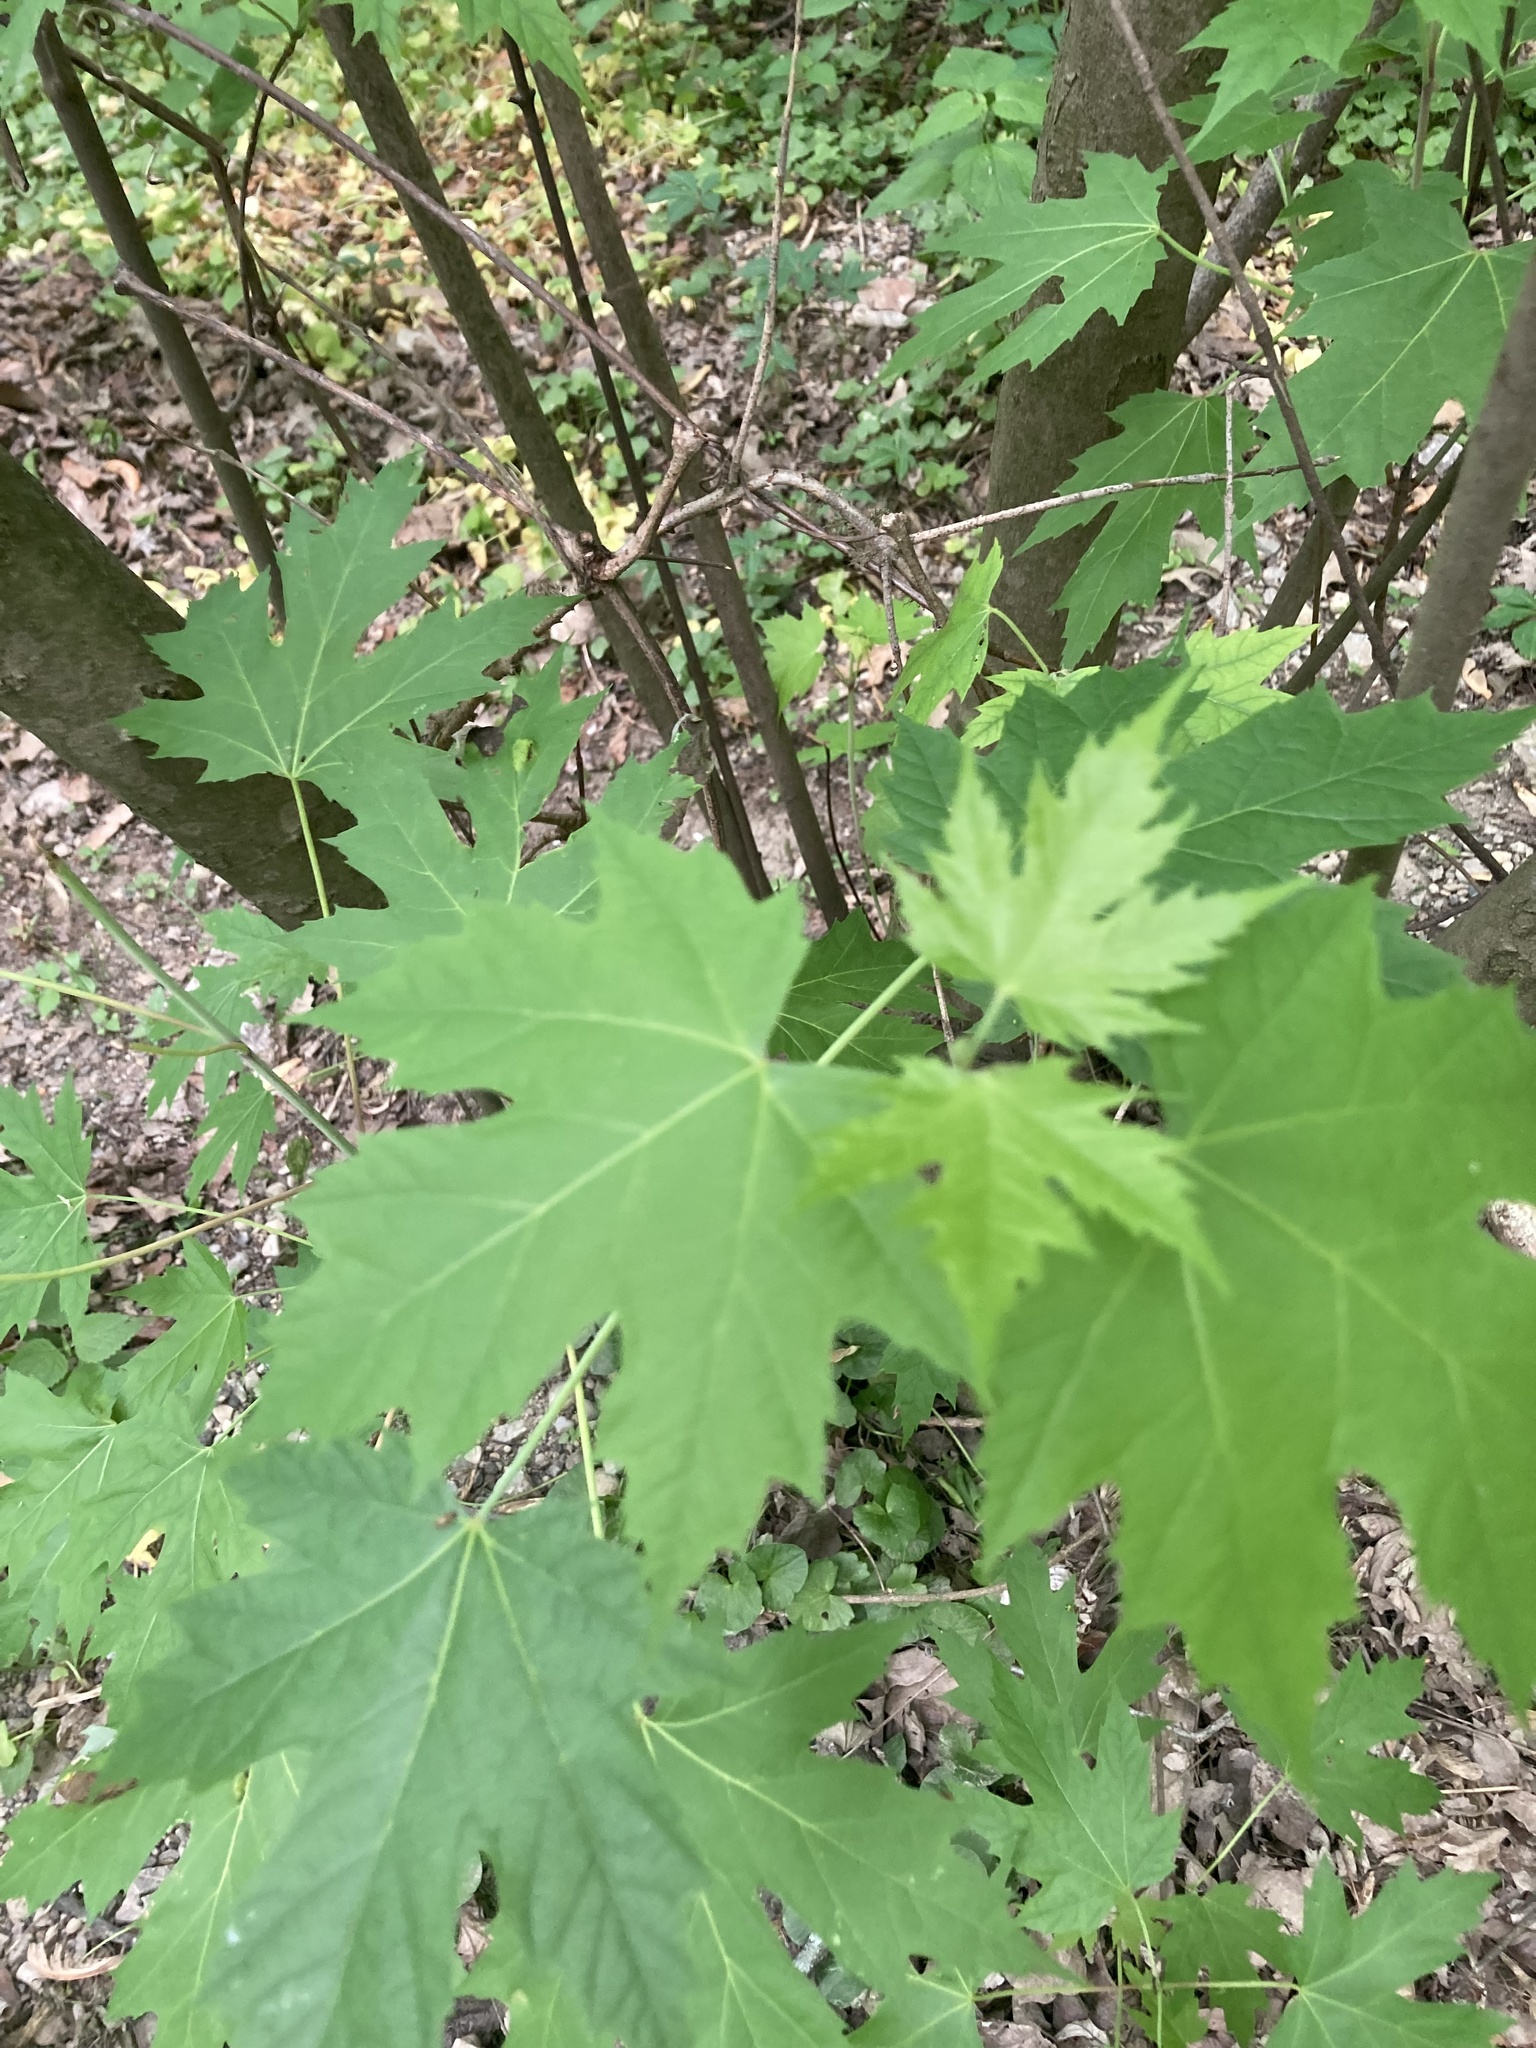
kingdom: Plantae
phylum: Tracheophyta
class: Magnoliopsida
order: Sapindales
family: Sapindaceae
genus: Acer
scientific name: Acer saccharinum
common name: Silver maple
